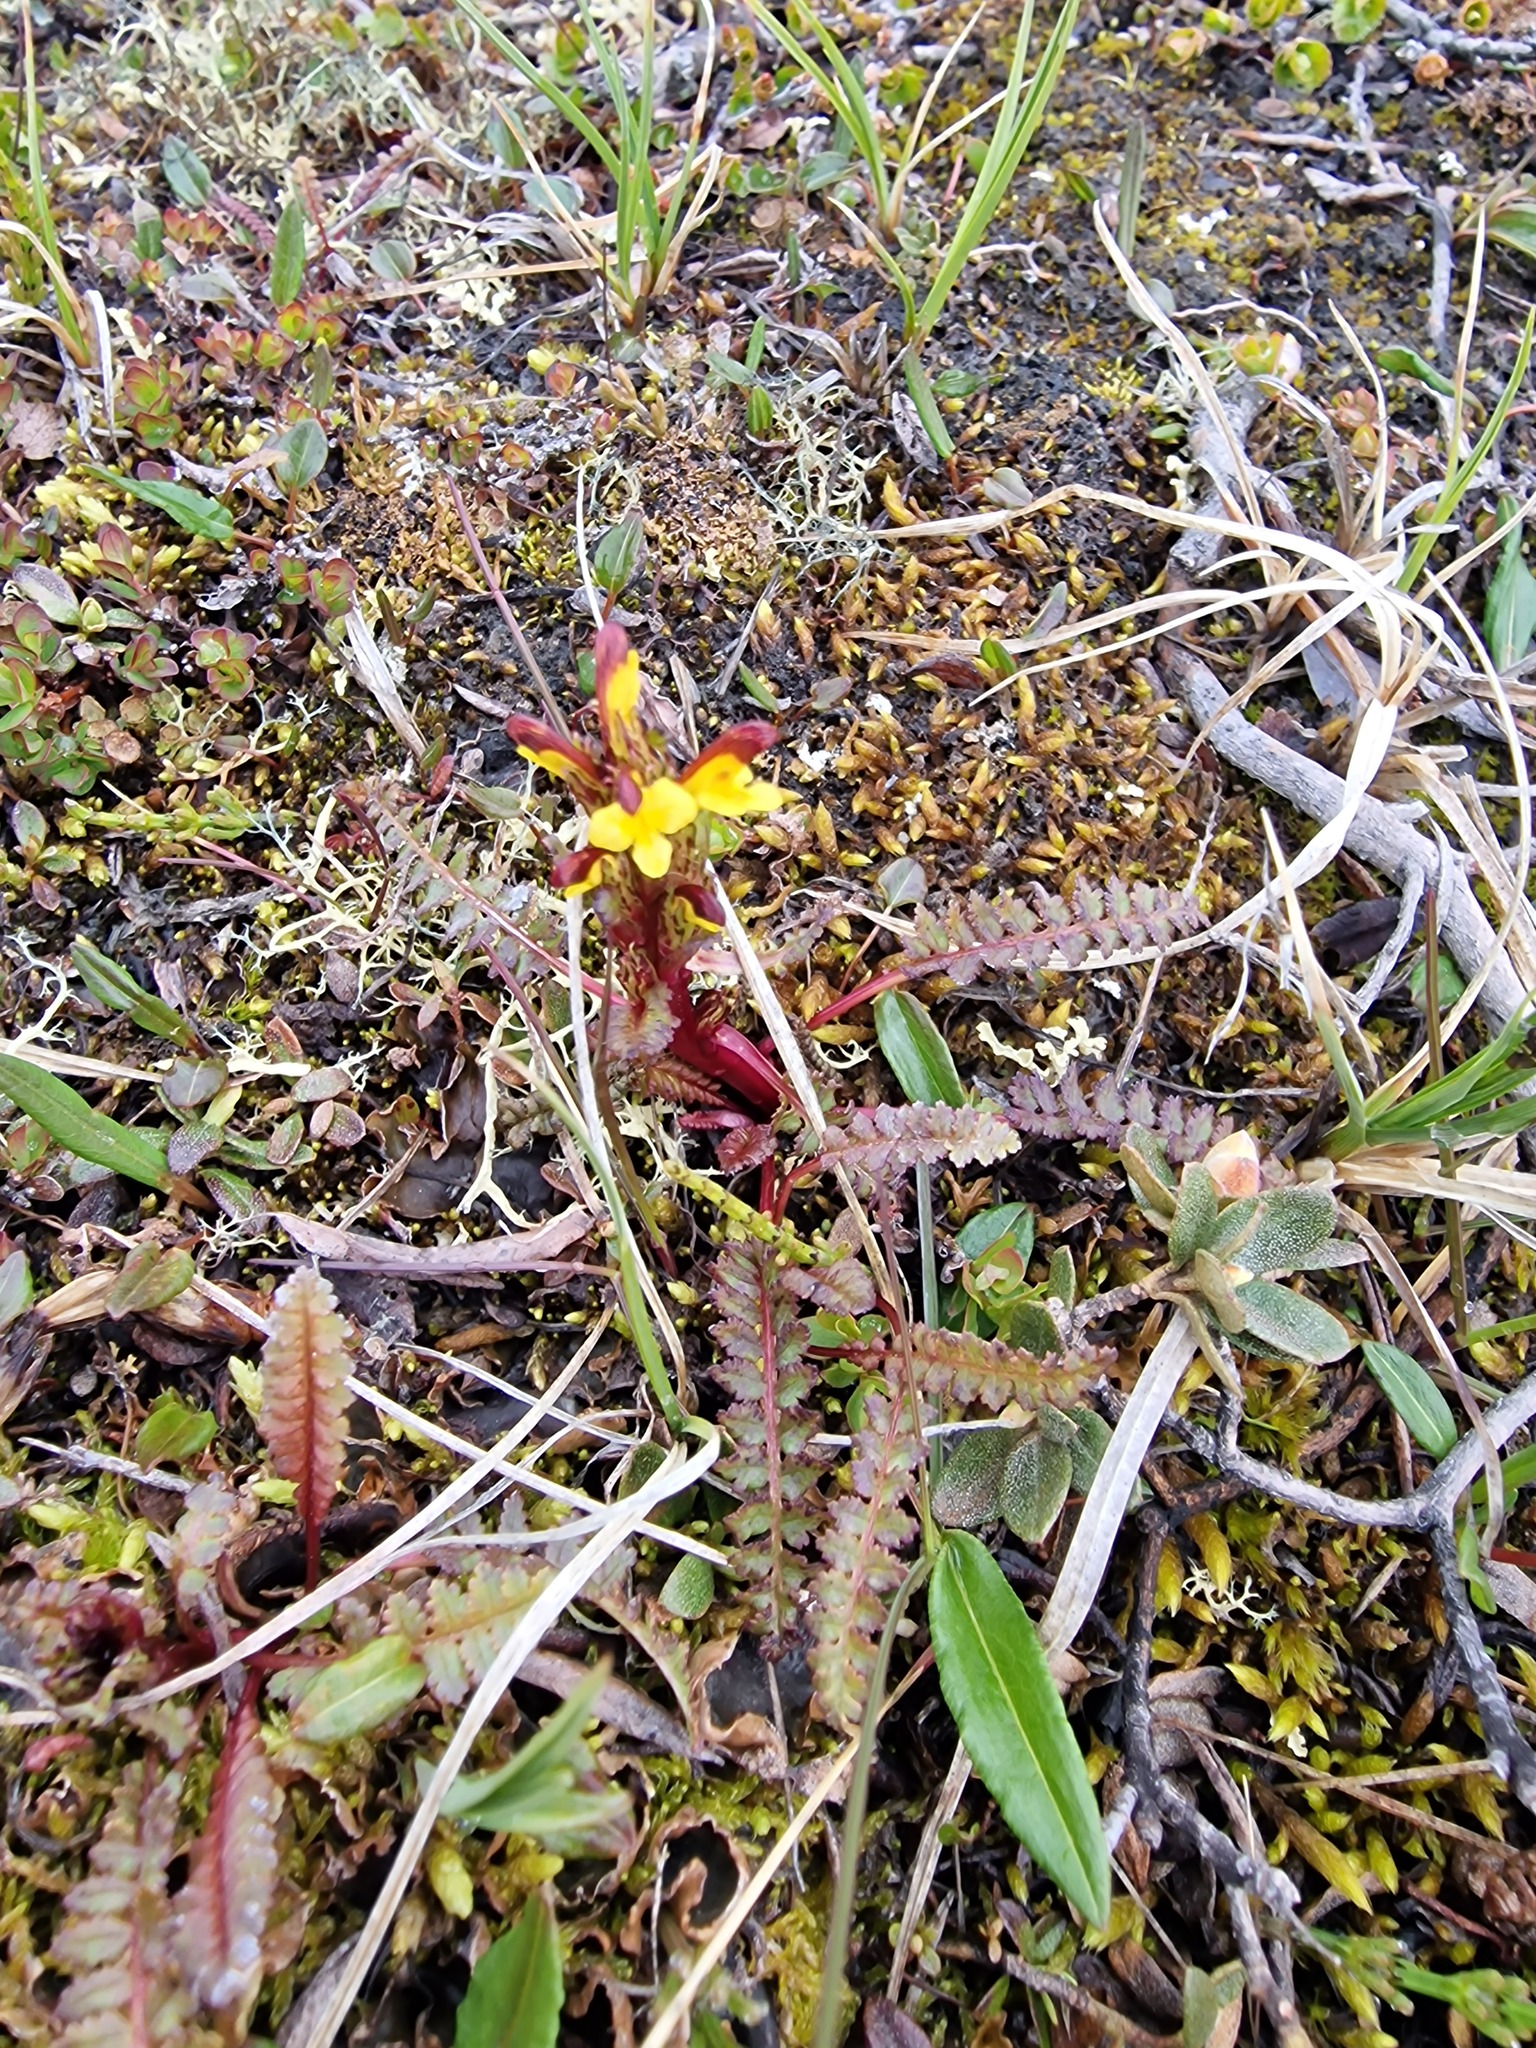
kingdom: Plantae
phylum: Tracheophyta
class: Magnoliopsida
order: Lamiales
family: Orobanchaceae
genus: Pedicularis
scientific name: Pedicularis flammea
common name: Flame-coloured lousewort
